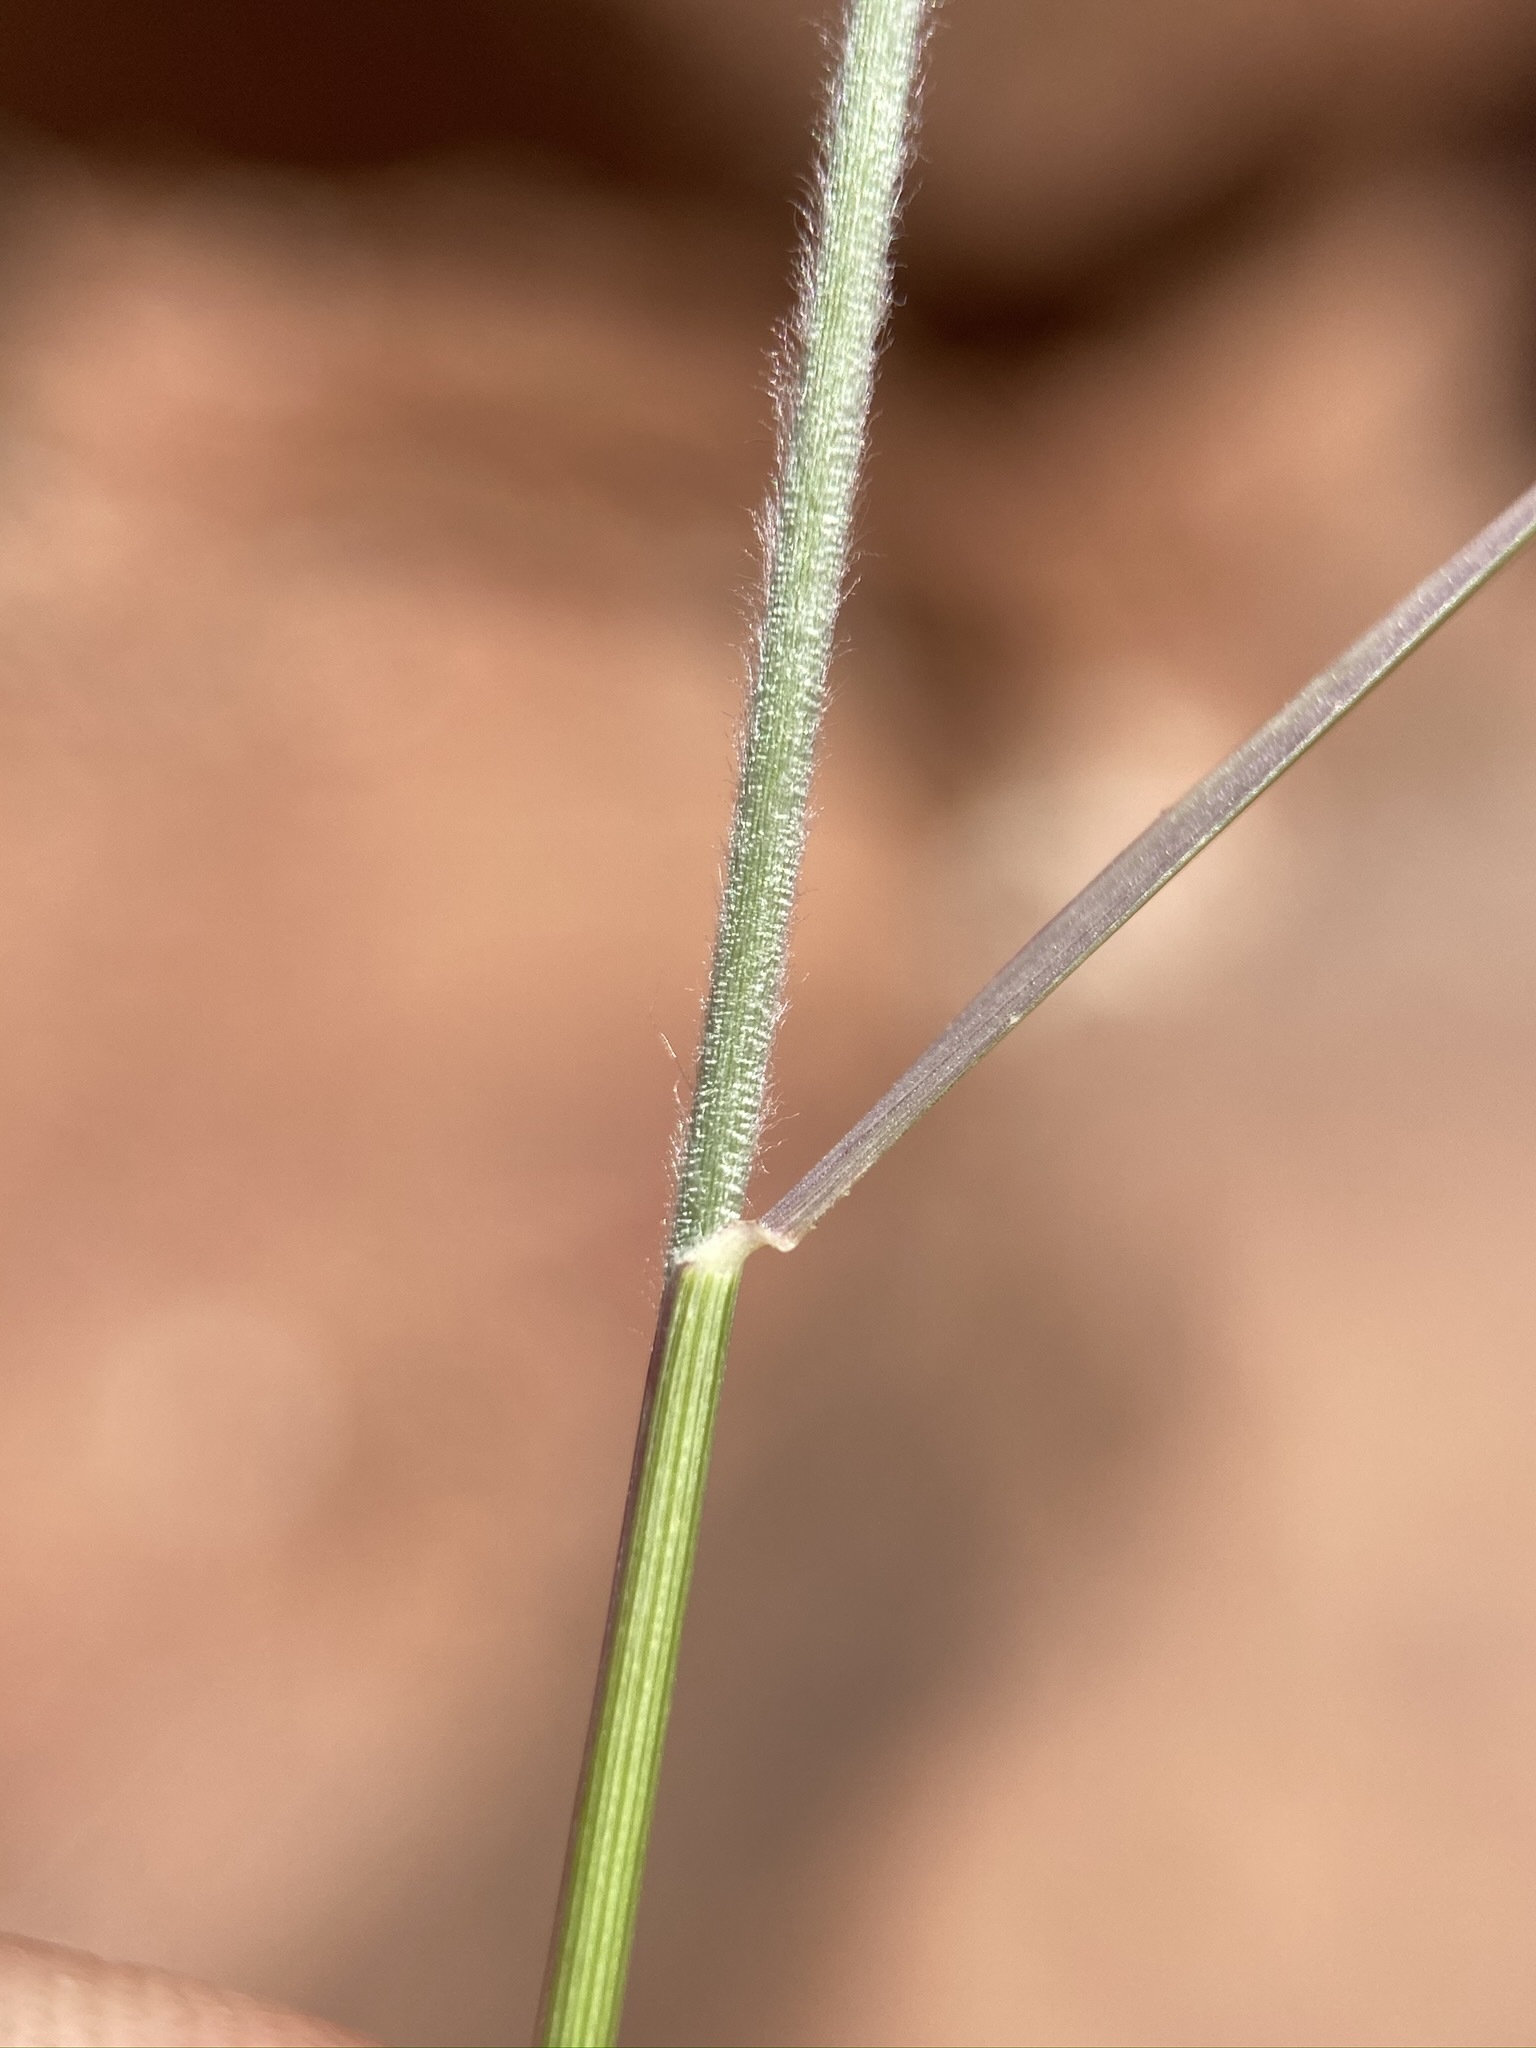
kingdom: Plantae
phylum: Tracheophyta
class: Liliopsida
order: Poales
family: Poaceae
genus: Bouteloua
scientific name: Bouteloua eriopoda
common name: Woolly foot grama
